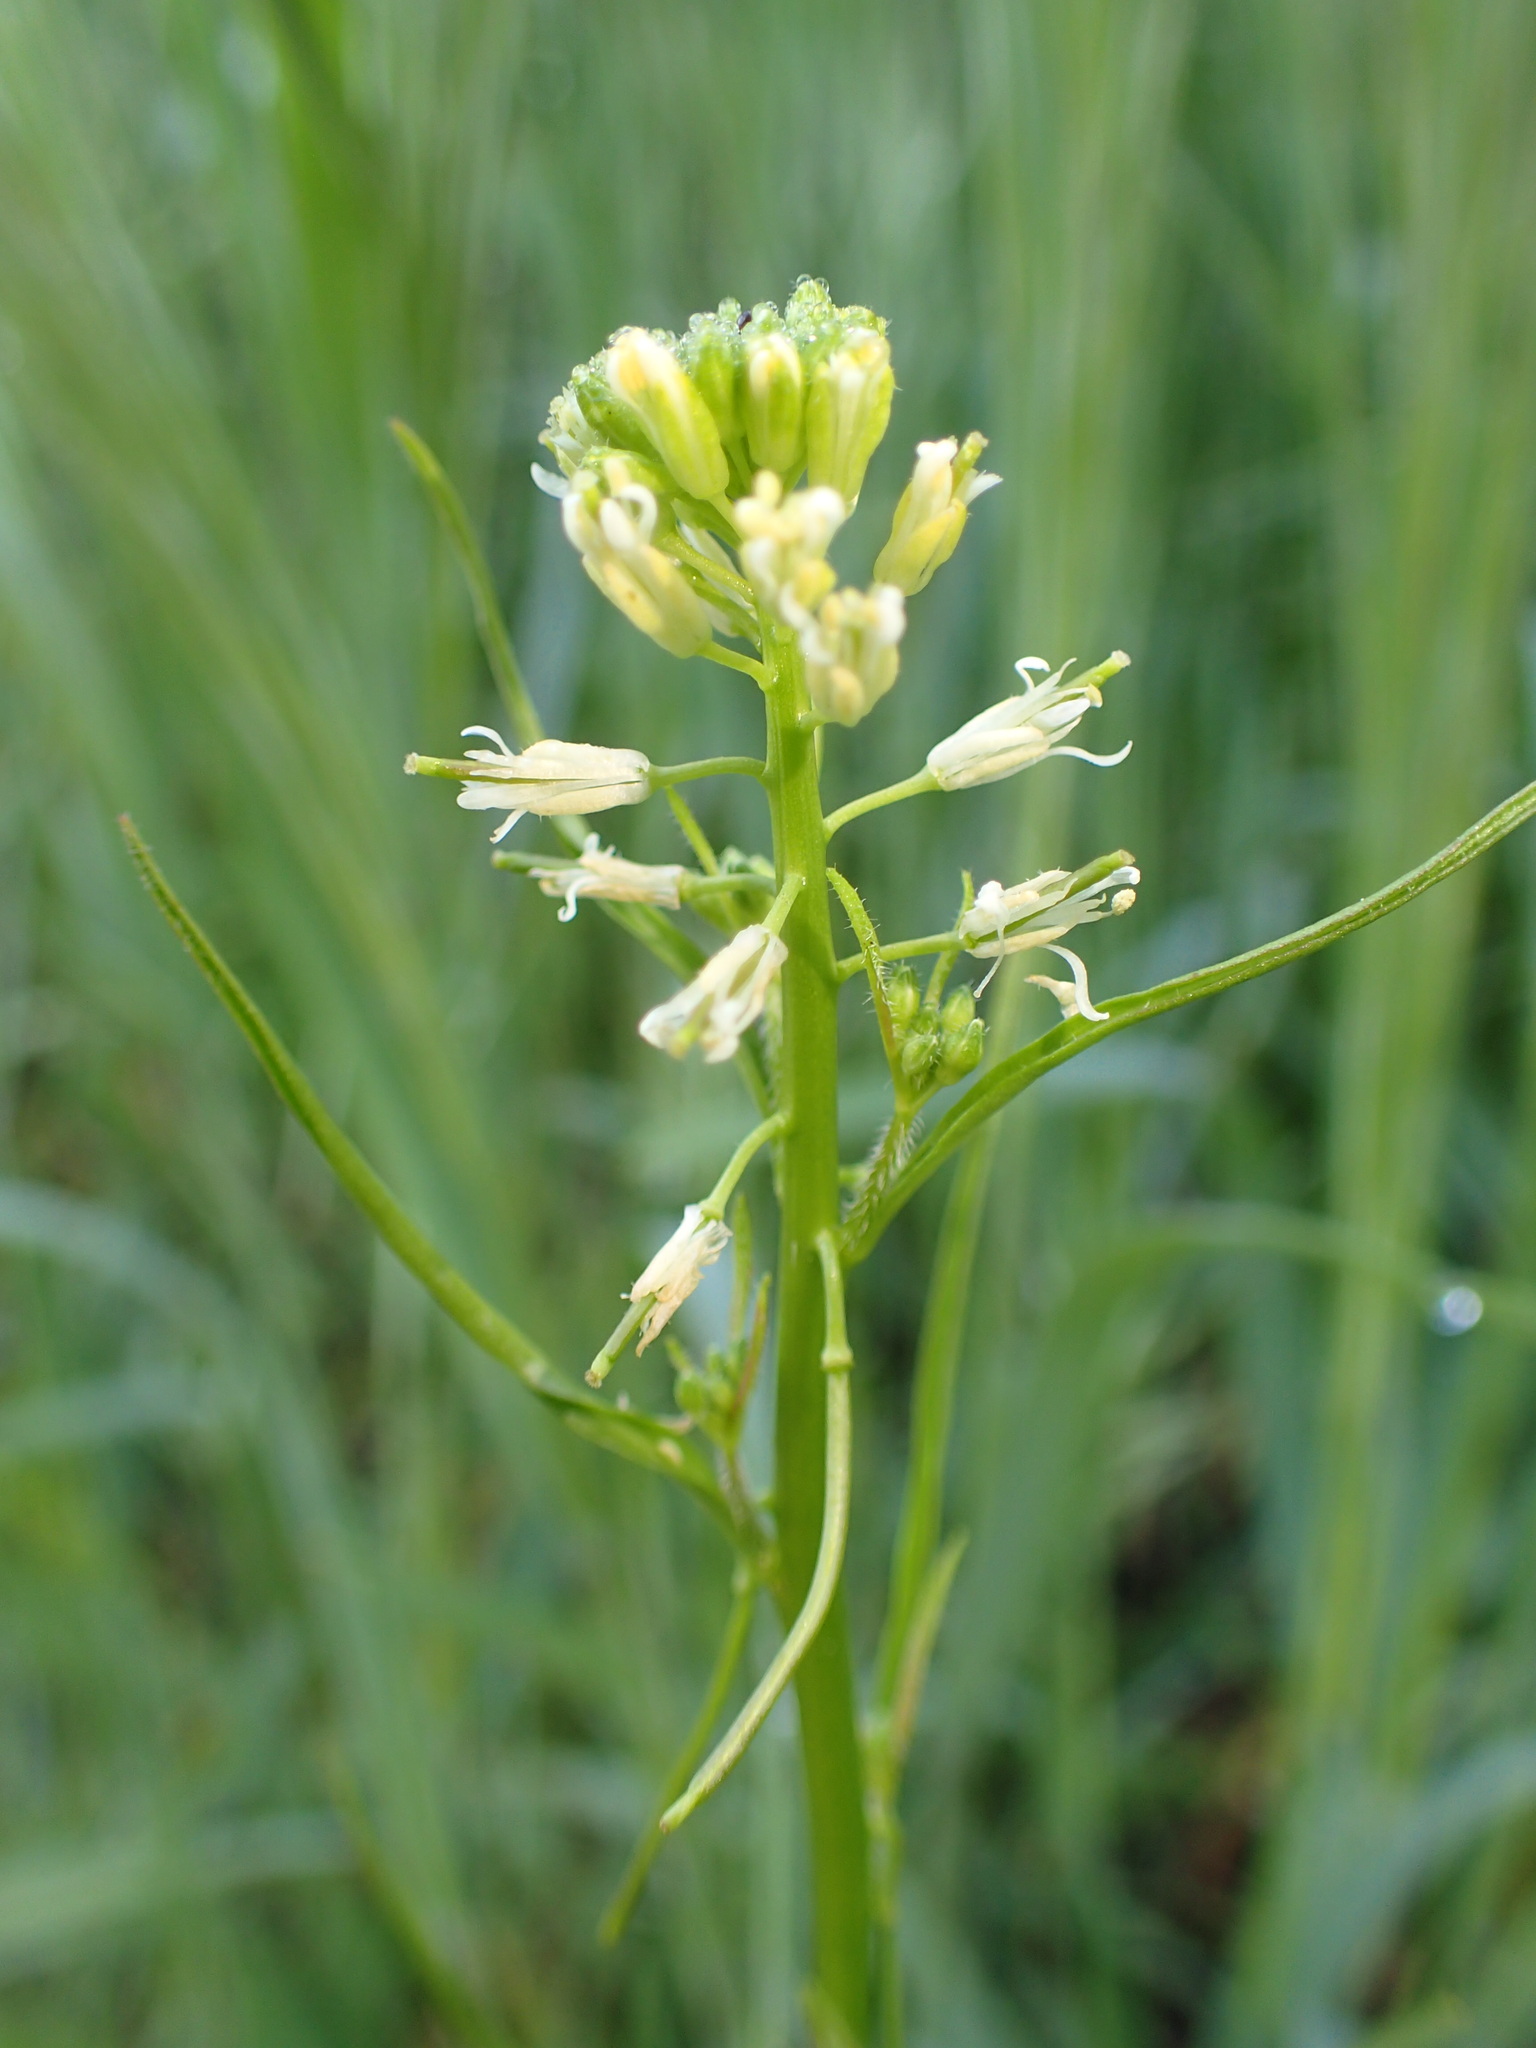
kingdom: Plantae
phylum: Tracheophyta
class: Magnoliopsida
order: Brassicales
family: Brassicaceae
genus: Streptanthus
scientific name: Streptanthus lasiophyllus
